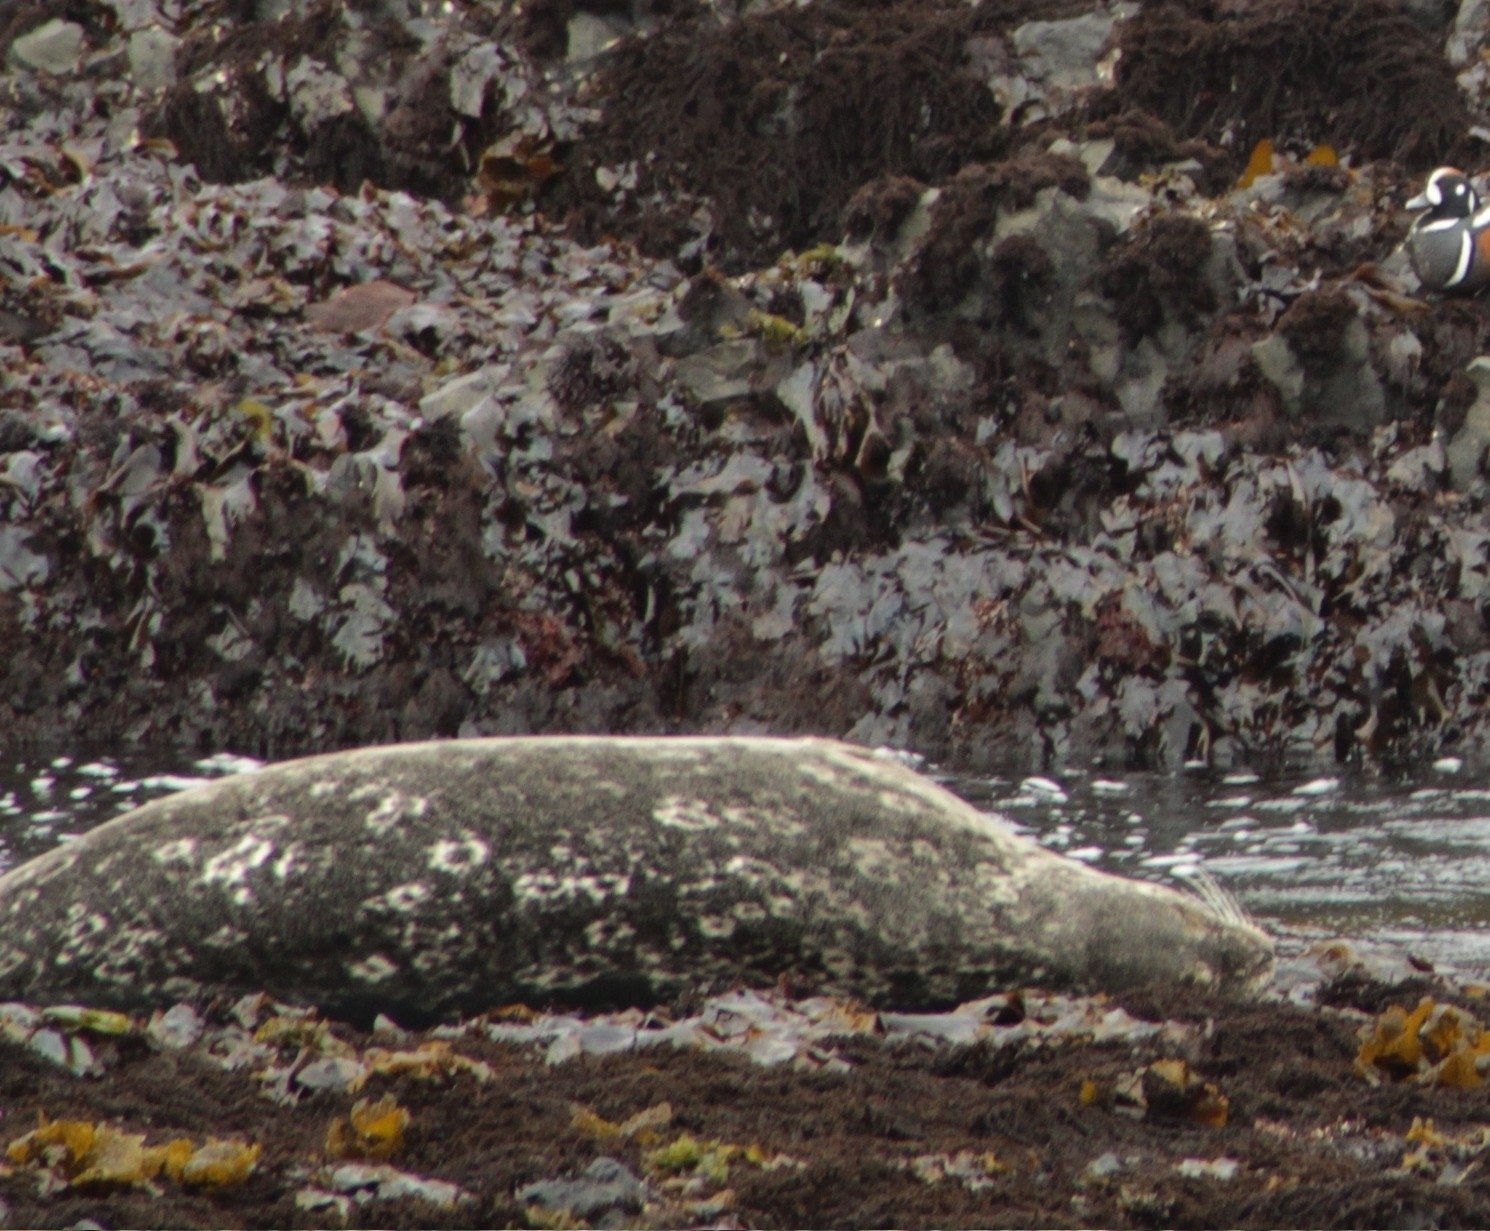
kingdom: Animalia
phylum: Chordata
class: Mammalia
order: Carnivora
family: Phocidae
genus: Phoca
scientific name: Phoca vitulina
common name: Harbor seal
